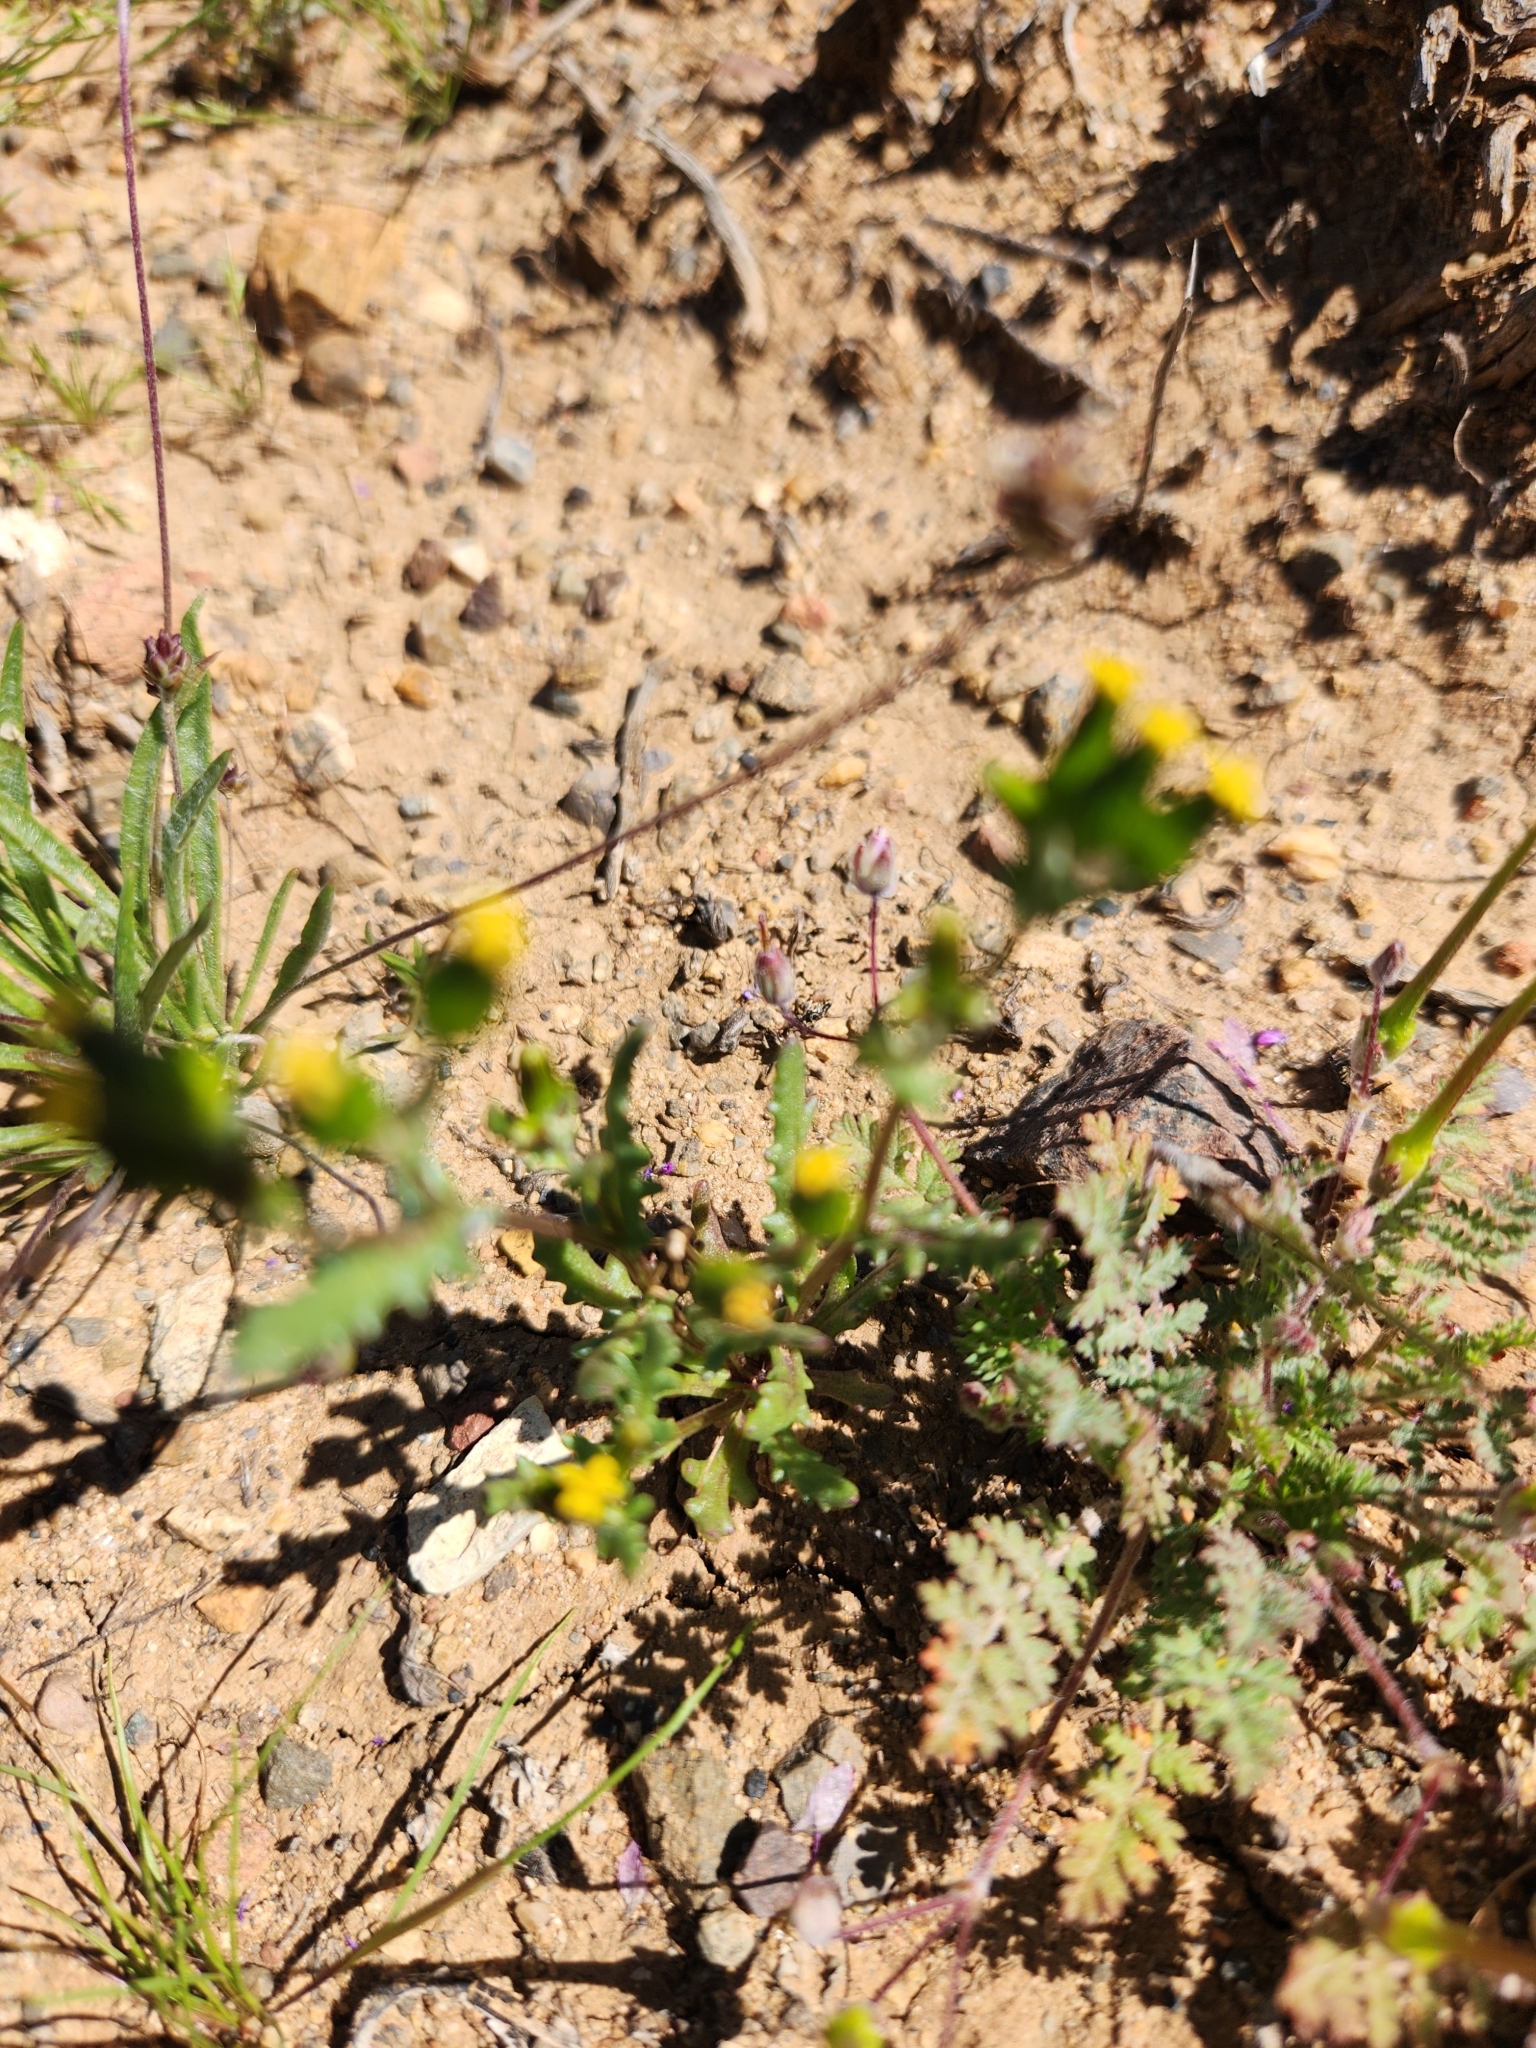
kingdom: Plantae
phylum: Tracheophyta
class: Magnoliopsida
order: Asterales
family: Asteraceae
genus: Senecio
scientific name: Senecio aphanactis
